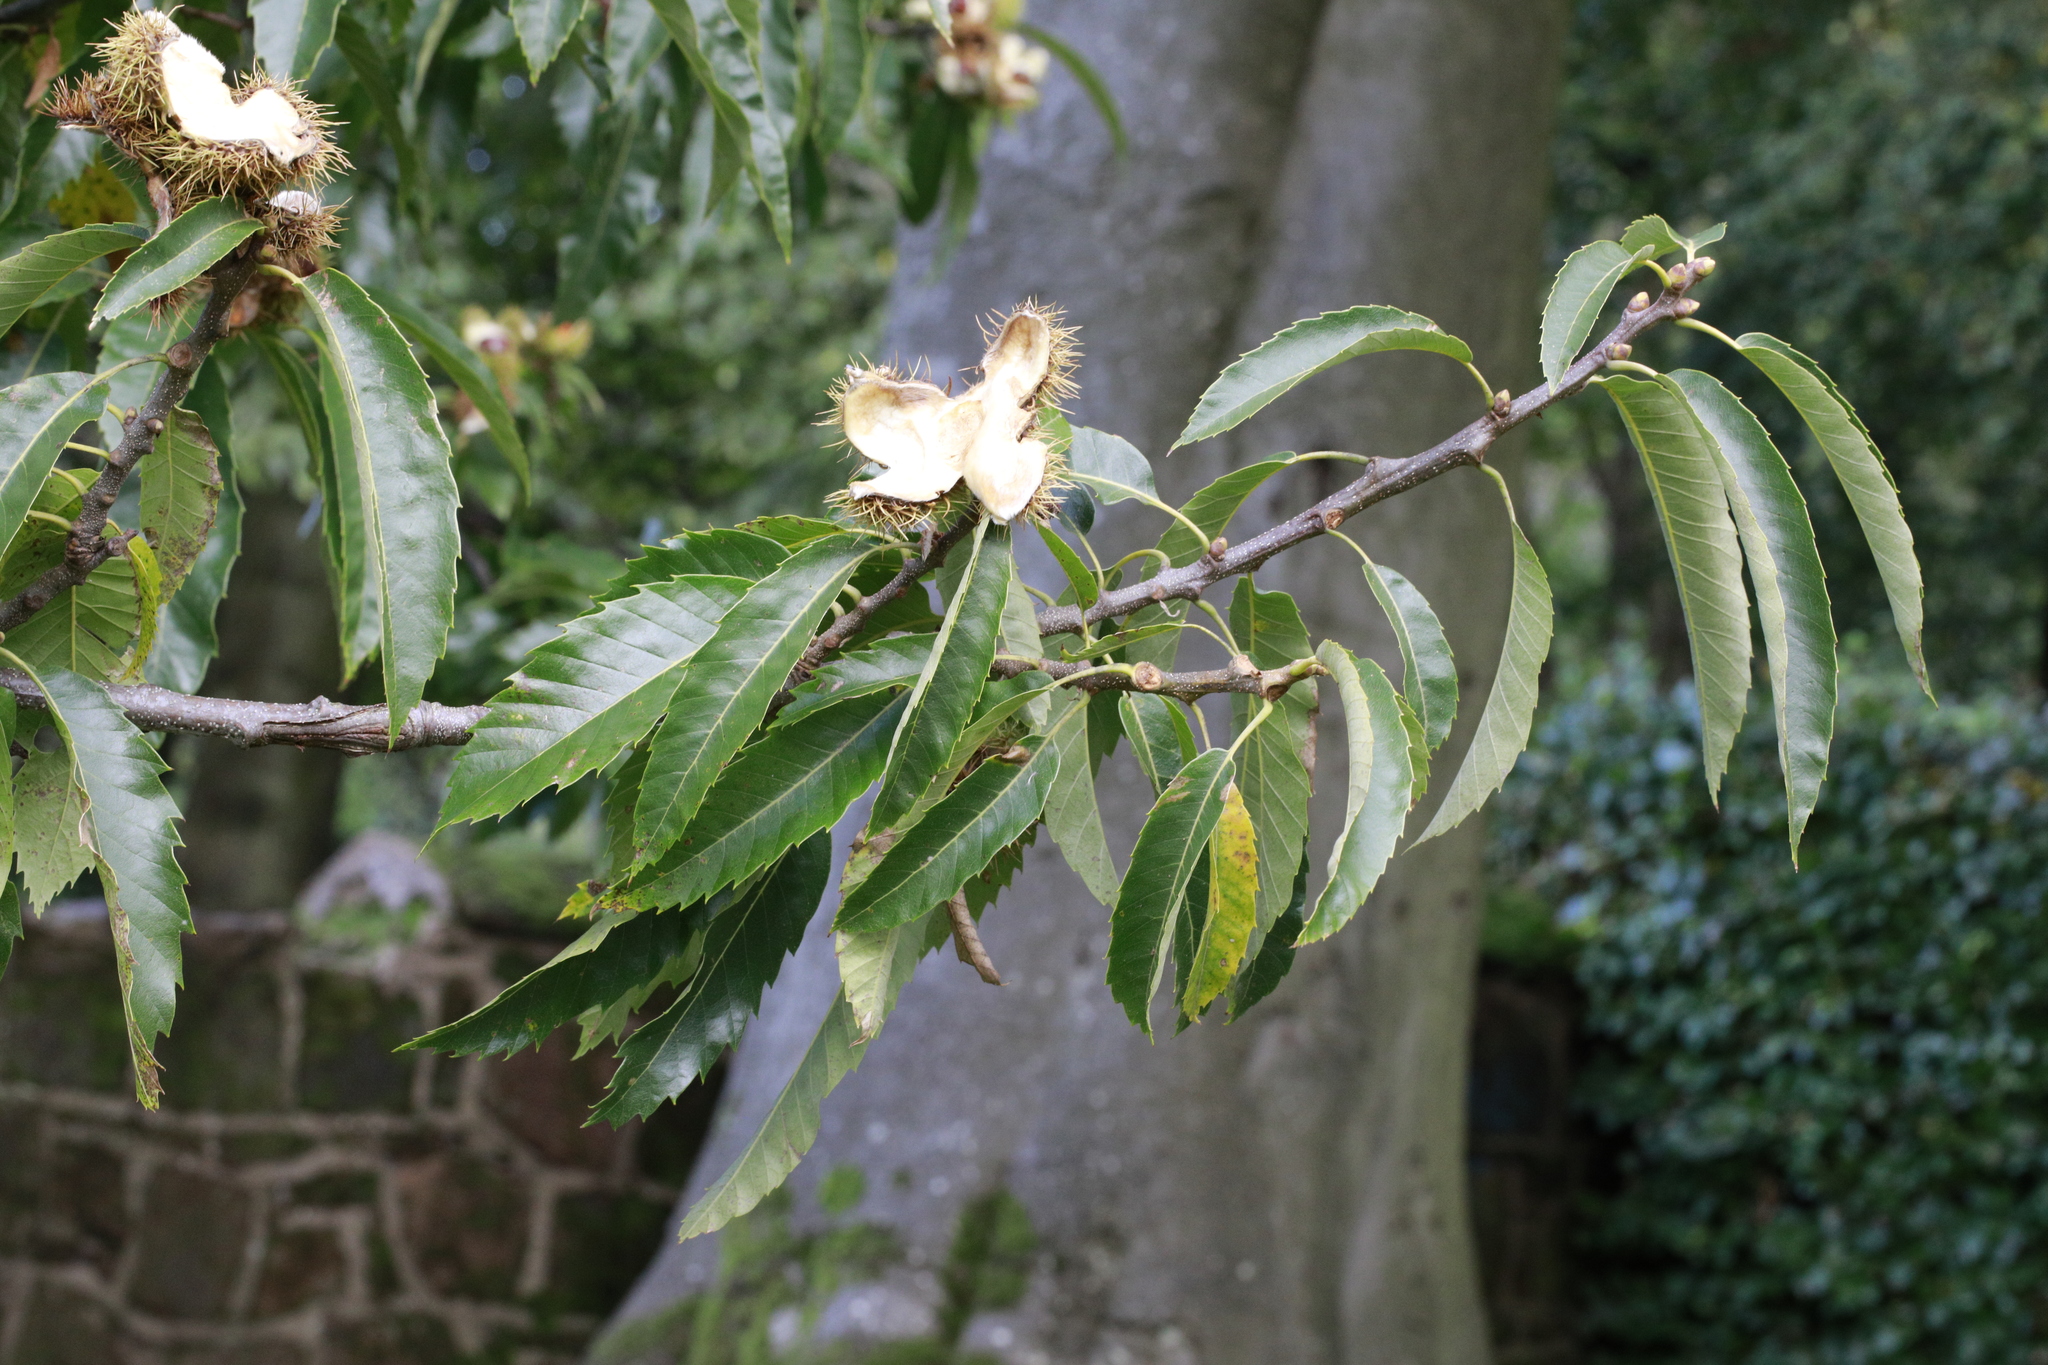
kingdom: Plantae
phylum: Tracheophyta
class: Magnoliopsida
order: Fagales
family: Fagaceae
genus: Castanea
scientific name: Castanea sativa
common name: Sweet chestnut
